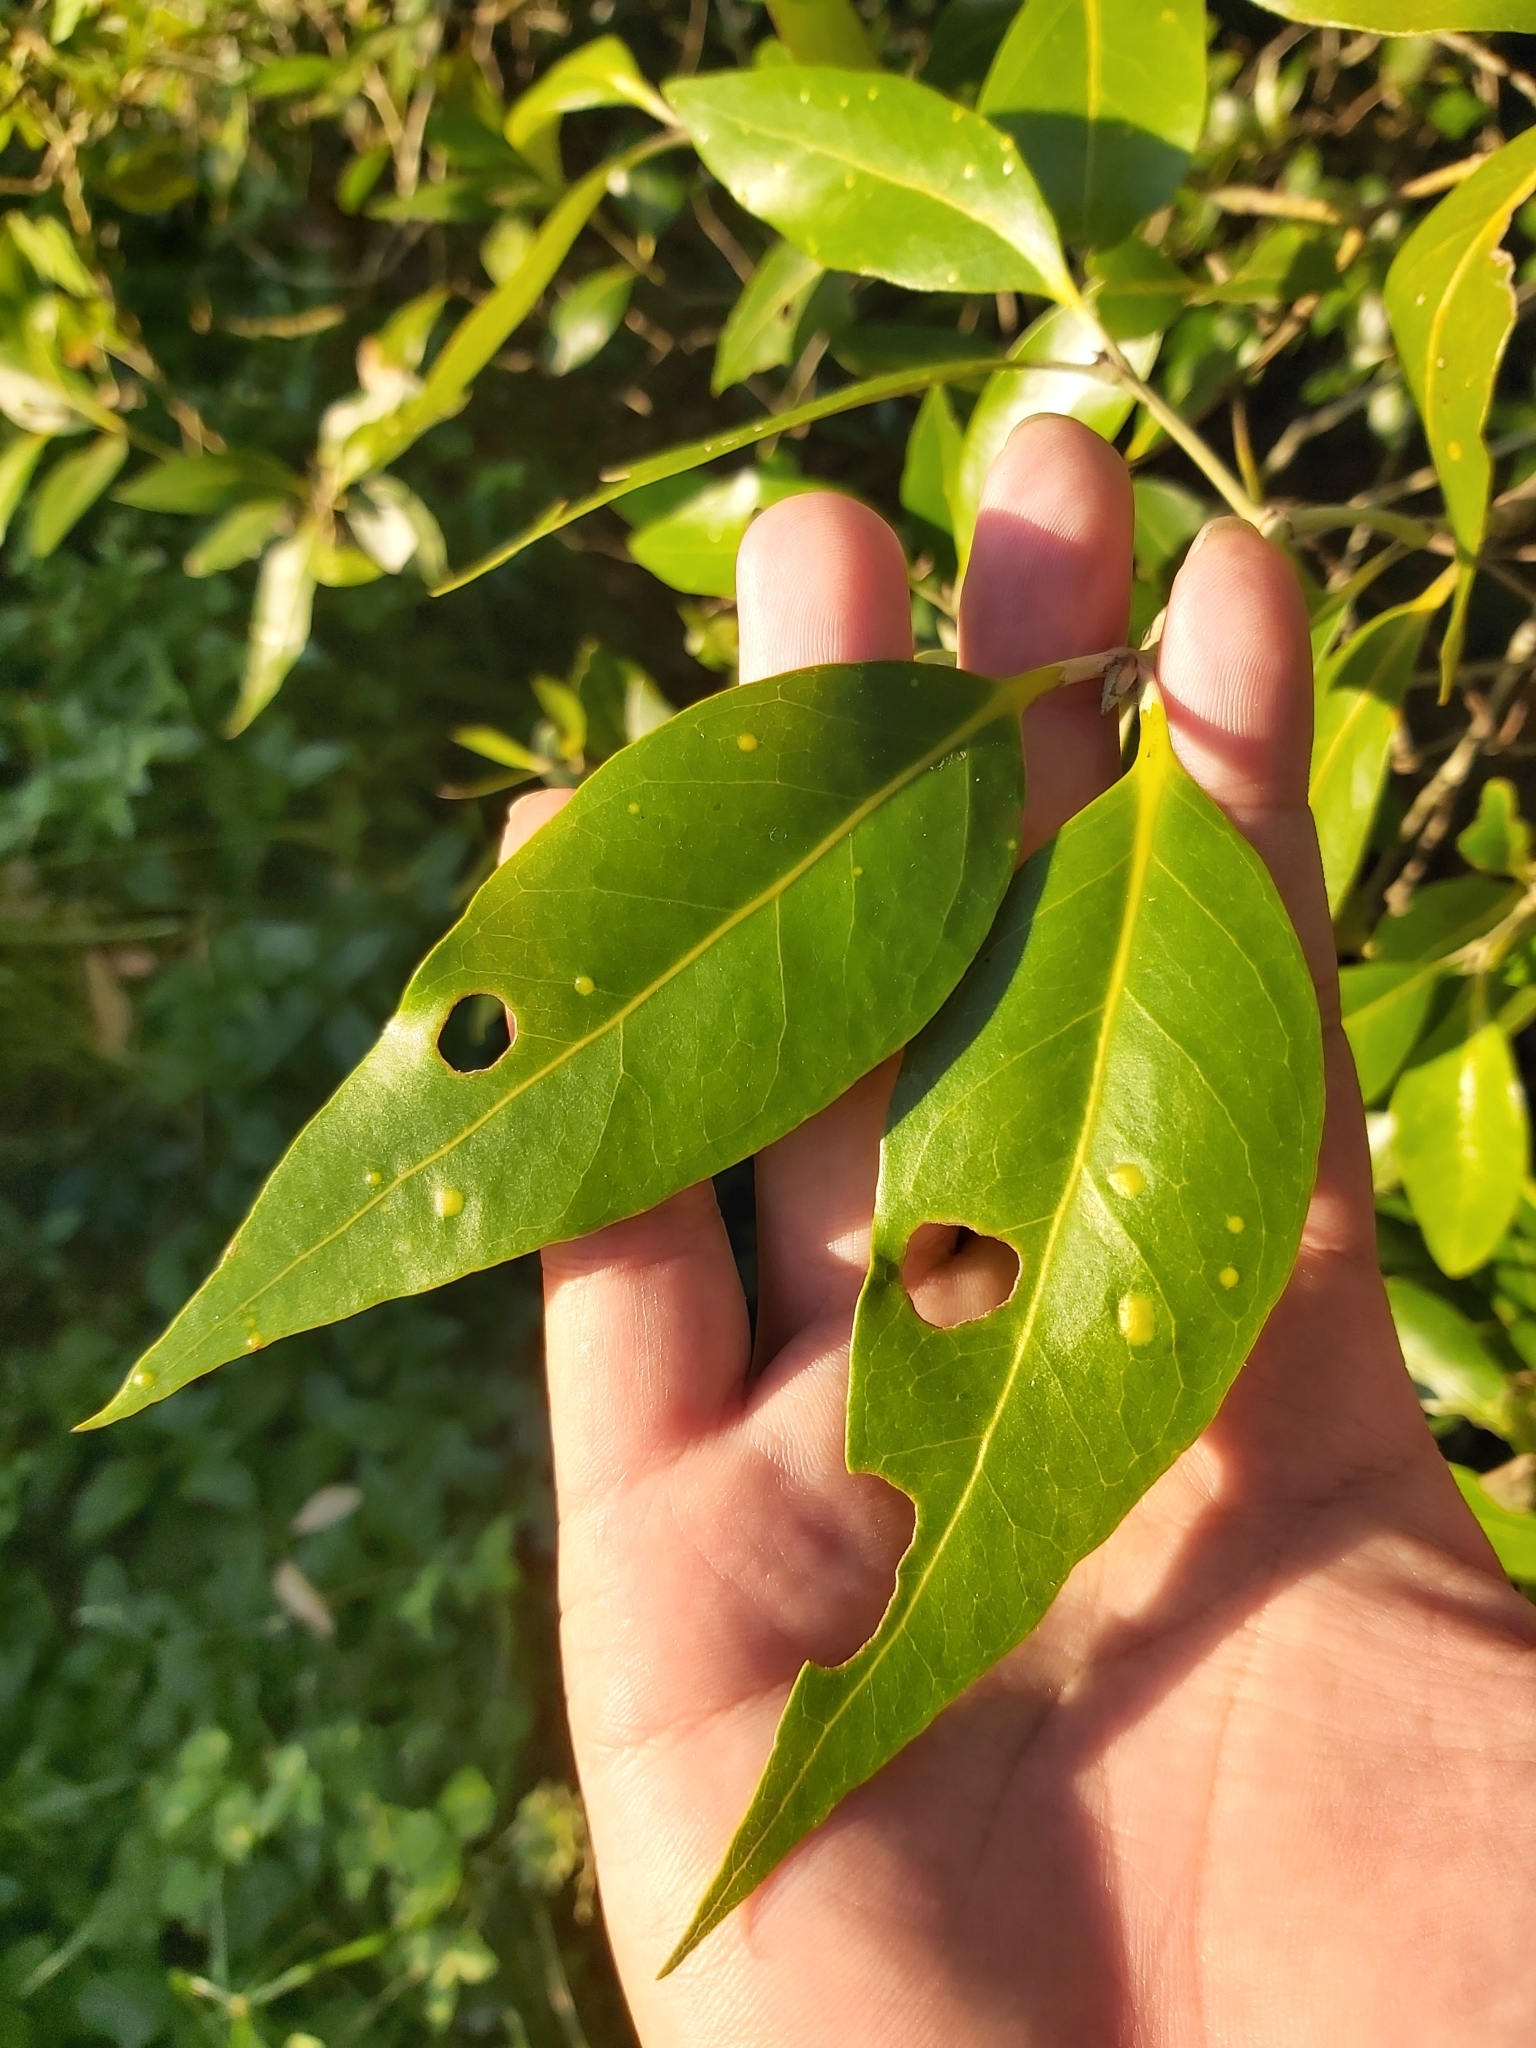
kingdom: Plantae
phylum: Tracheophyta
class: Magnoliopsida
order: Lamiales
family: Acanthaceae
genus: Avicennia
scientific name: Avicennia marina
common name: Gray mangrove
